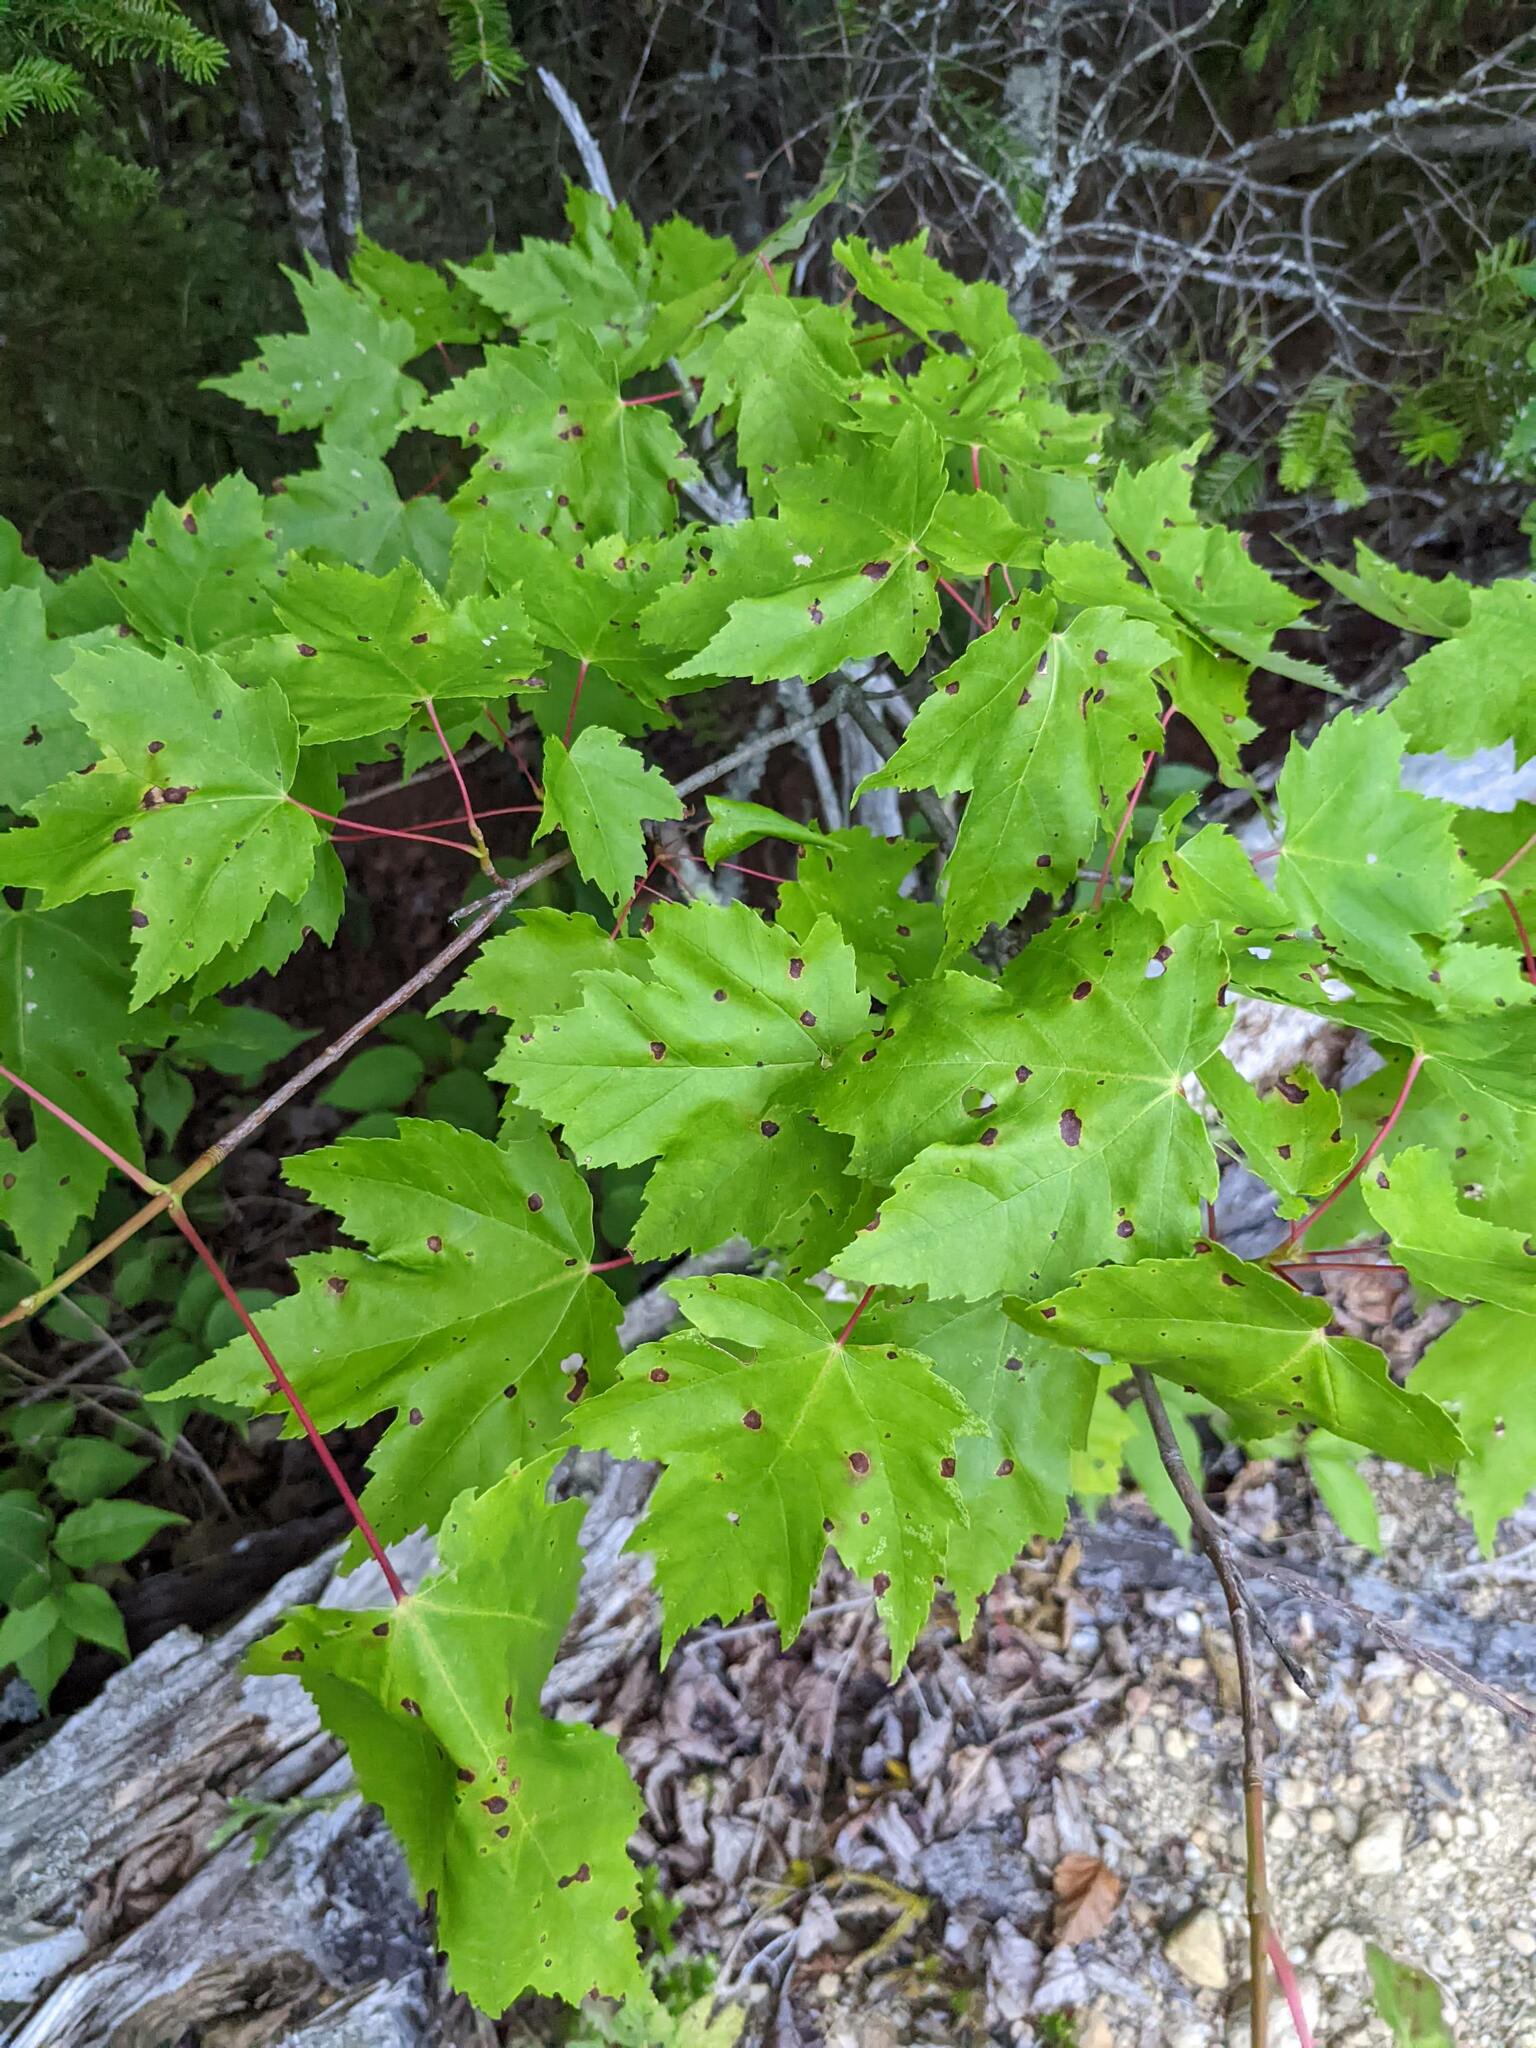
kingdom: Plantae
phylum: Tracheophyta
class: Magnoliopsida
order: Sapindales
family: Sapindaceae
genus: Acer
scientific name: Acer rubrum
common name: Red maple
